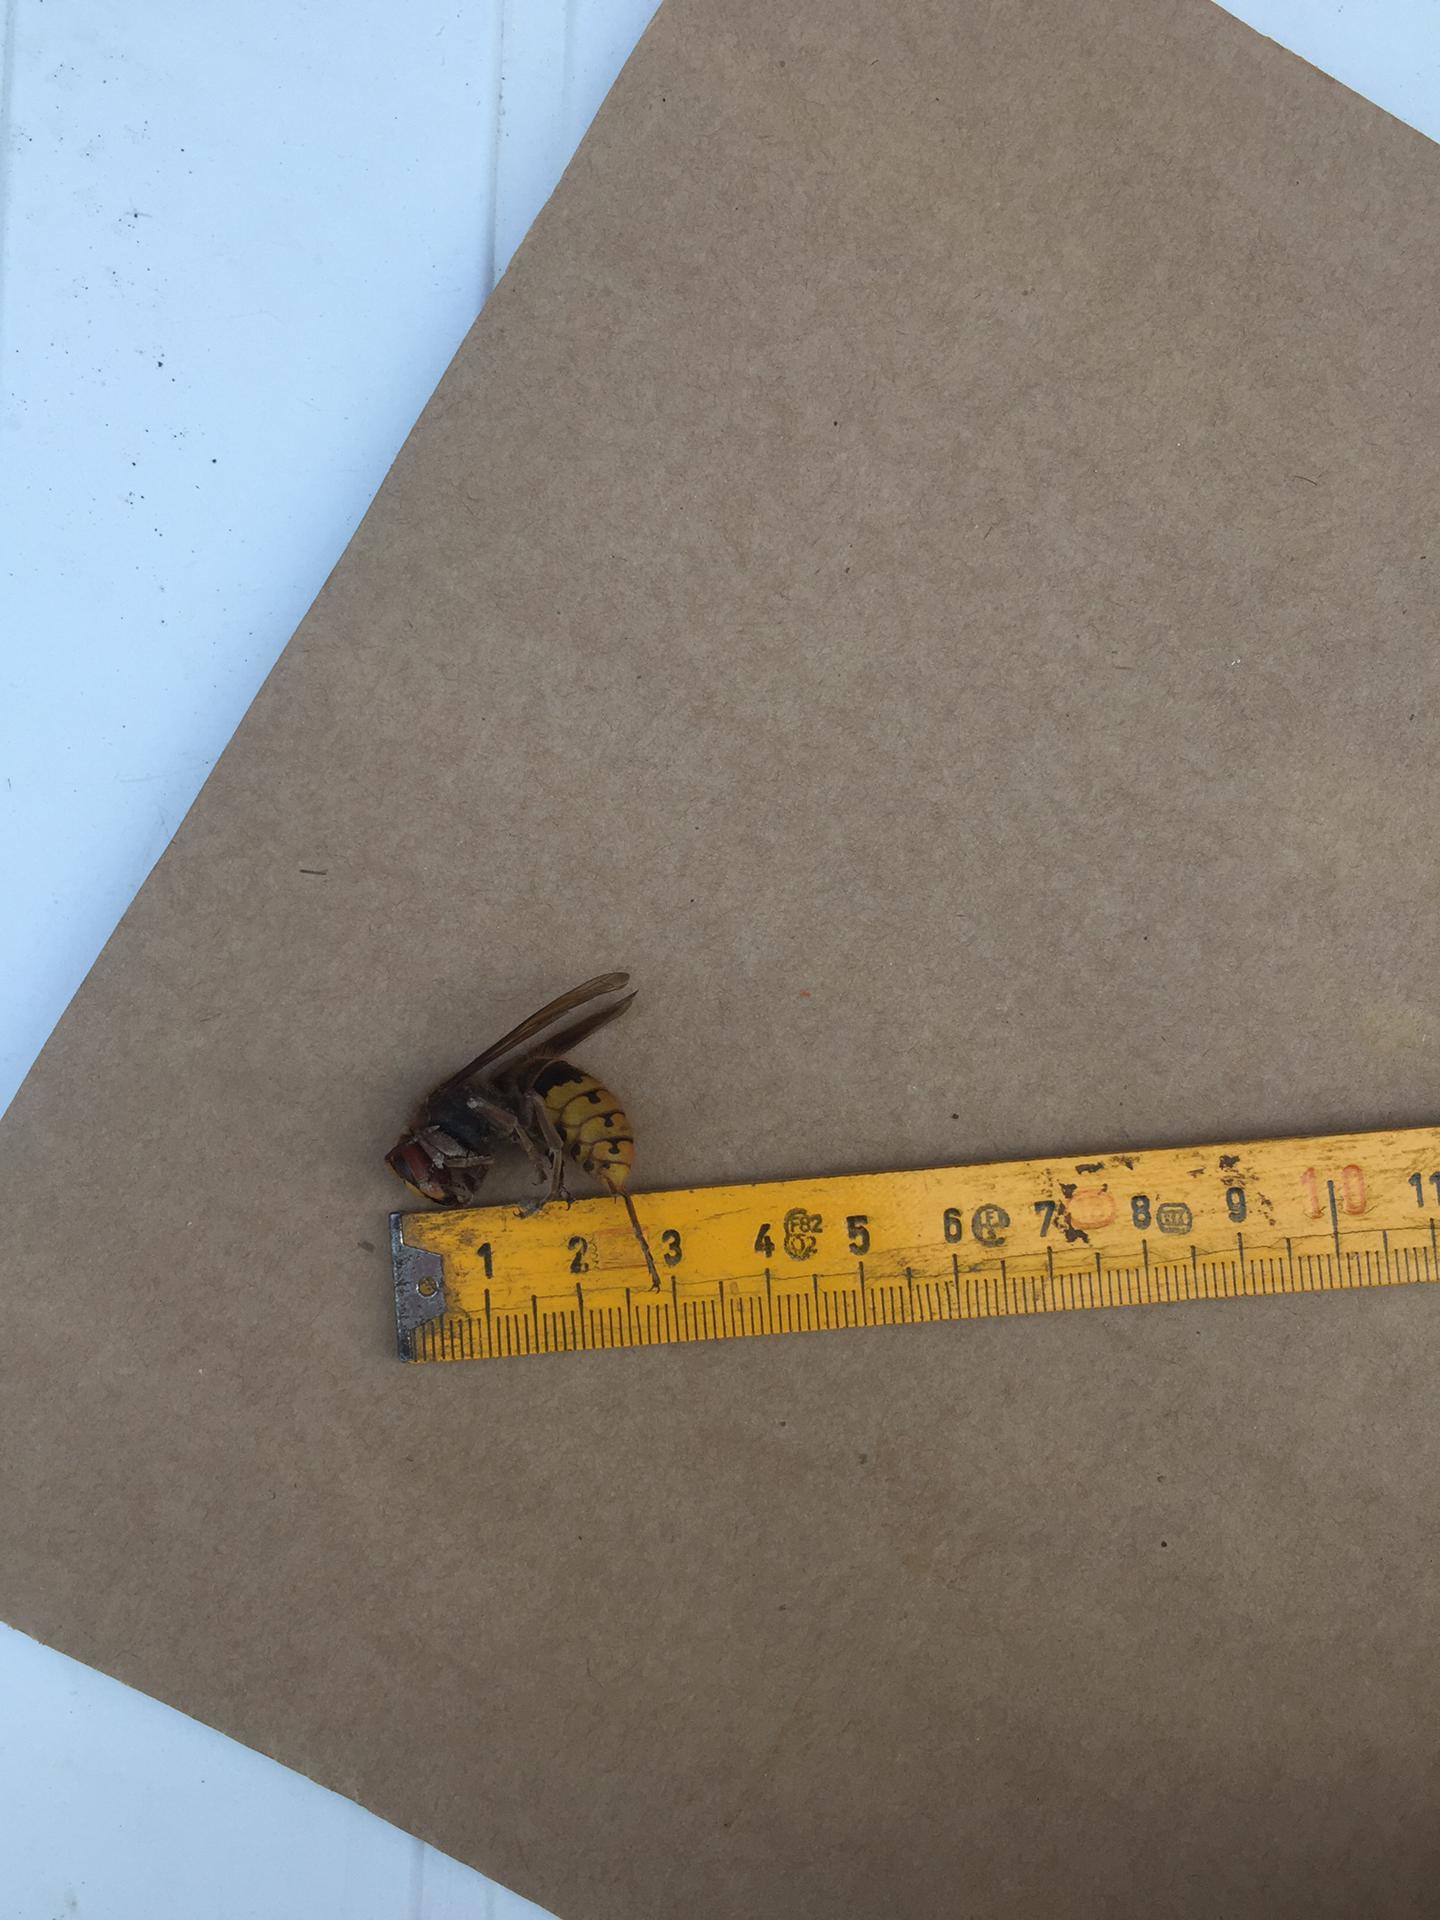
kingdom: Animalia
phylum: Arthropoda
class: Insecta
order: Hymenoptera
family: Vespidae
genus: Vespa
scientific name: Vespa crabro
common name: Hornet
